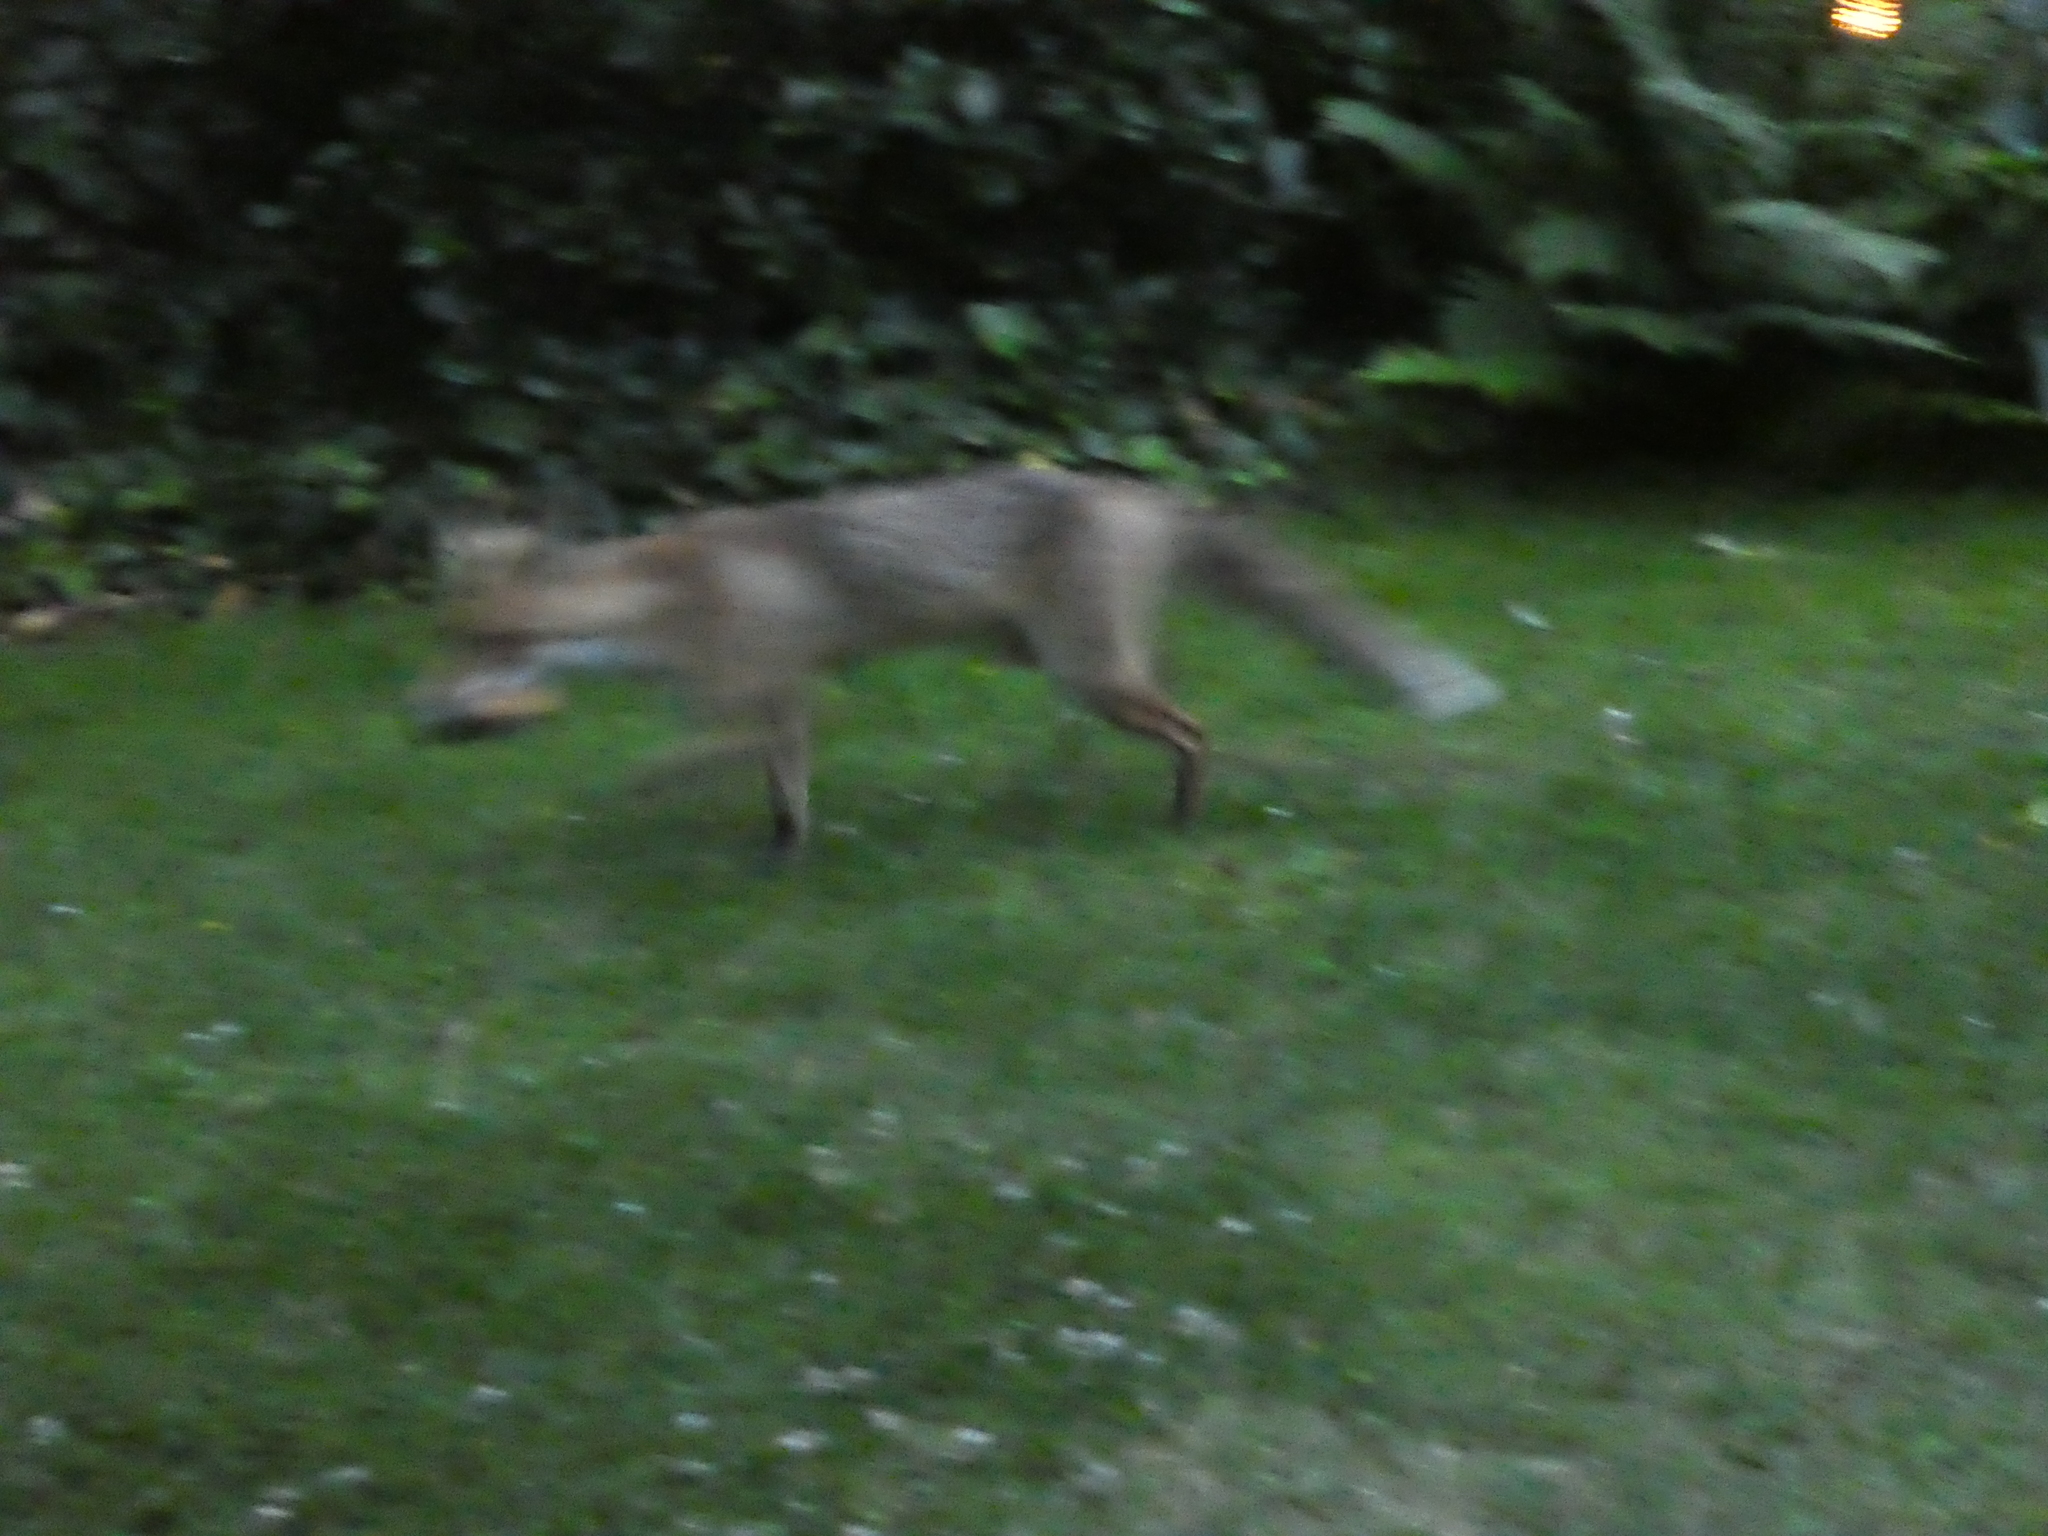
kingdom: Animalia
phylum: Chordata
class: Mammalia
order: Carnivora
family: Canidae
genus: Vulpes
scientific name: Vulpes vulpes
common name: Red fox
